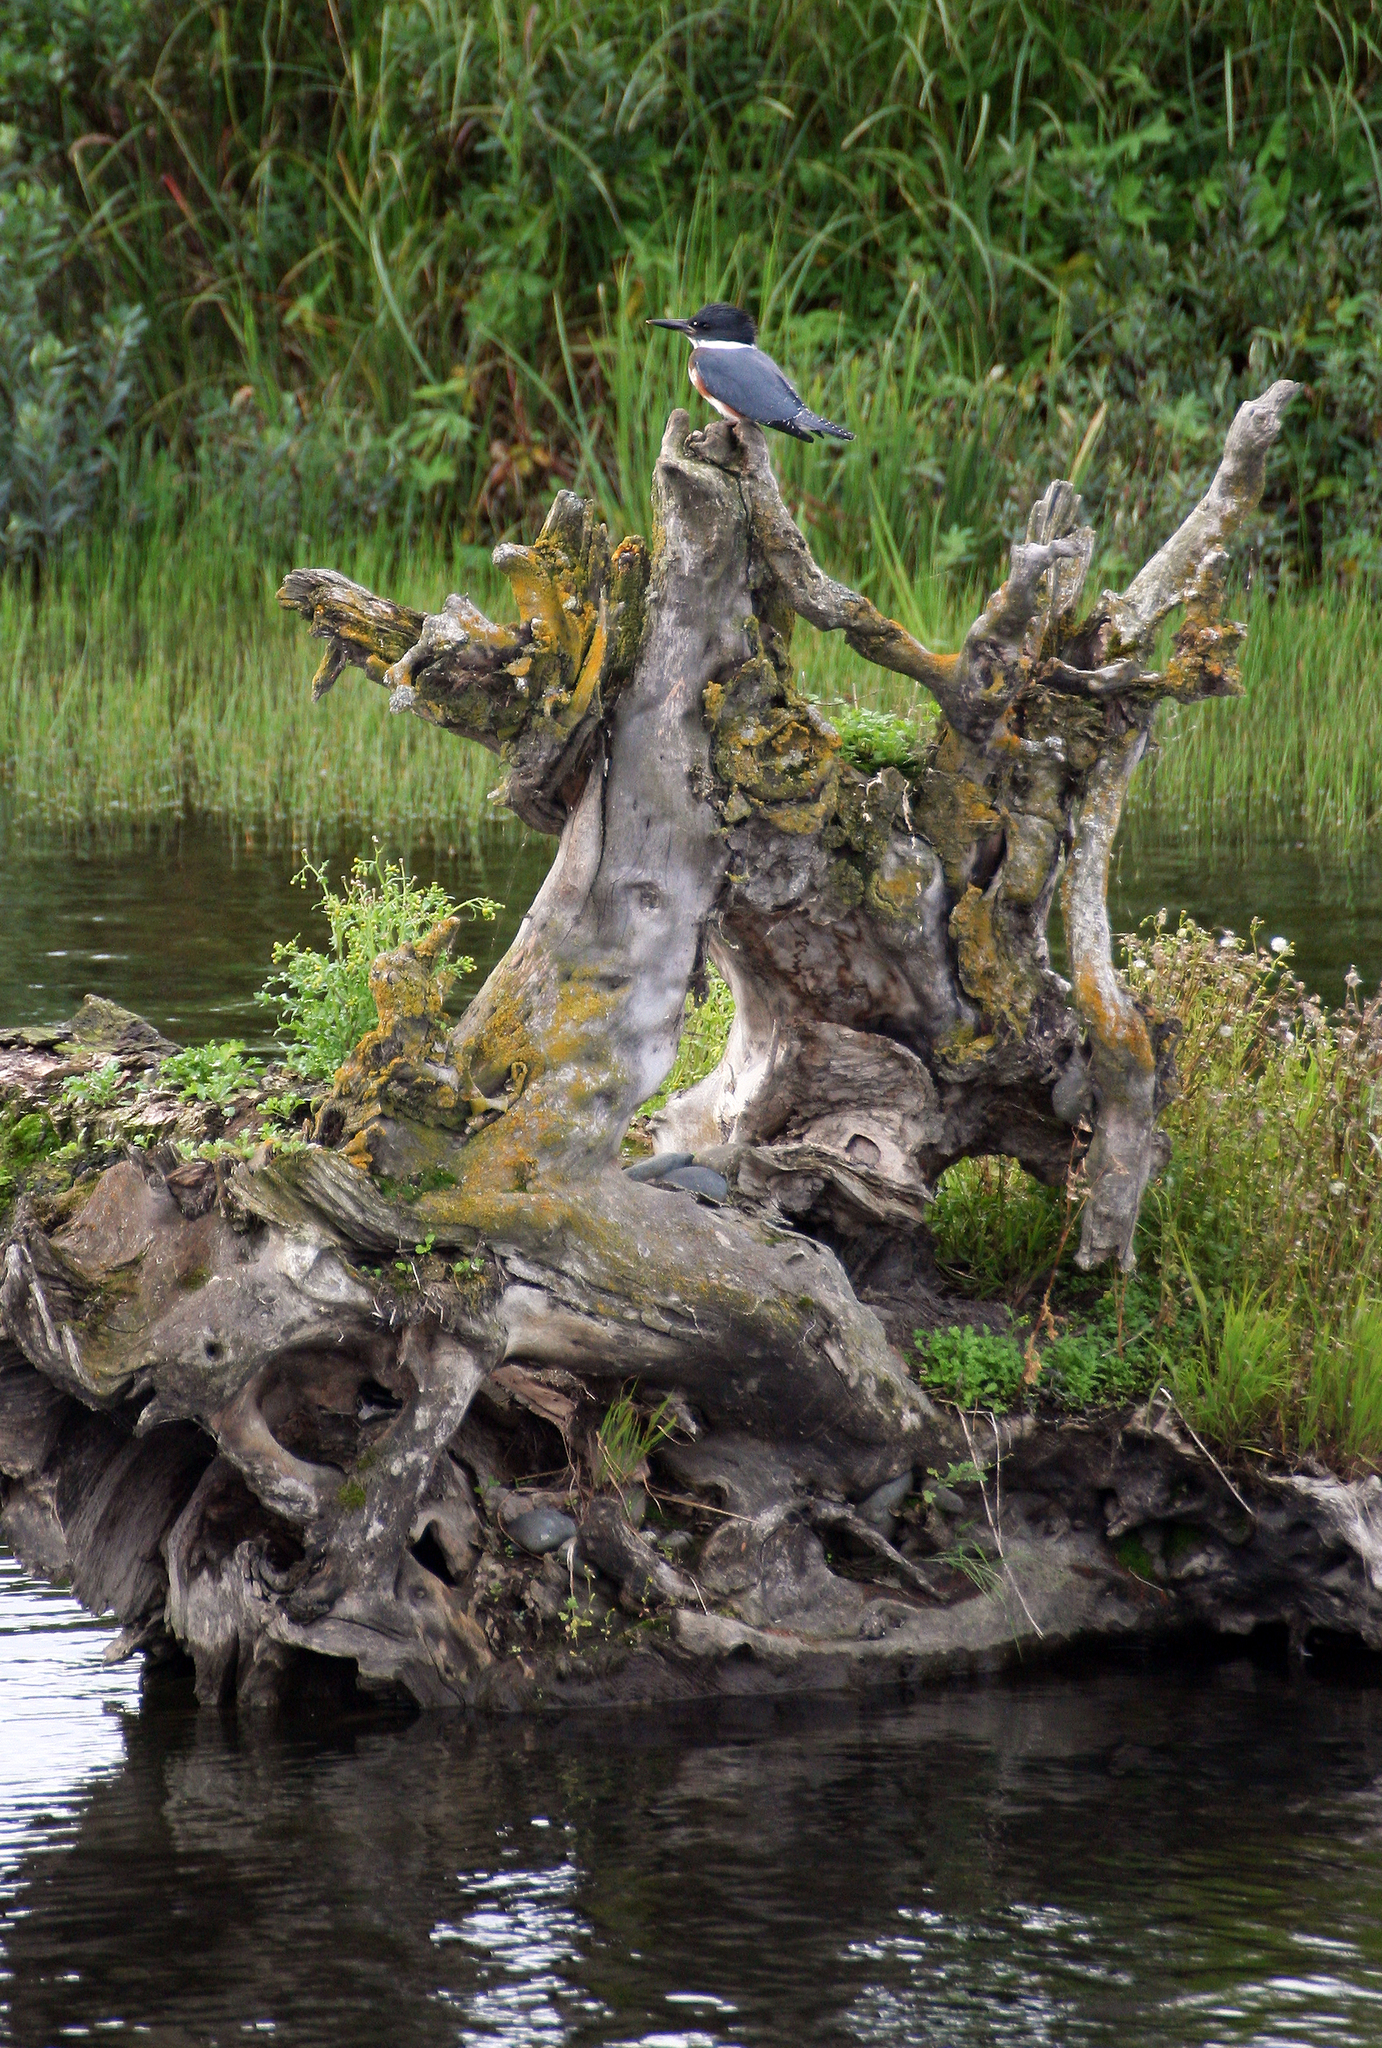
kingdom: Animalia
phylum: Chordata
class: Aves
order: Coraciiformes
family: Alcedinidae
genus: Megaceryle
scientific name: Megaceryle alcyon
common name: Belted kingfisher
